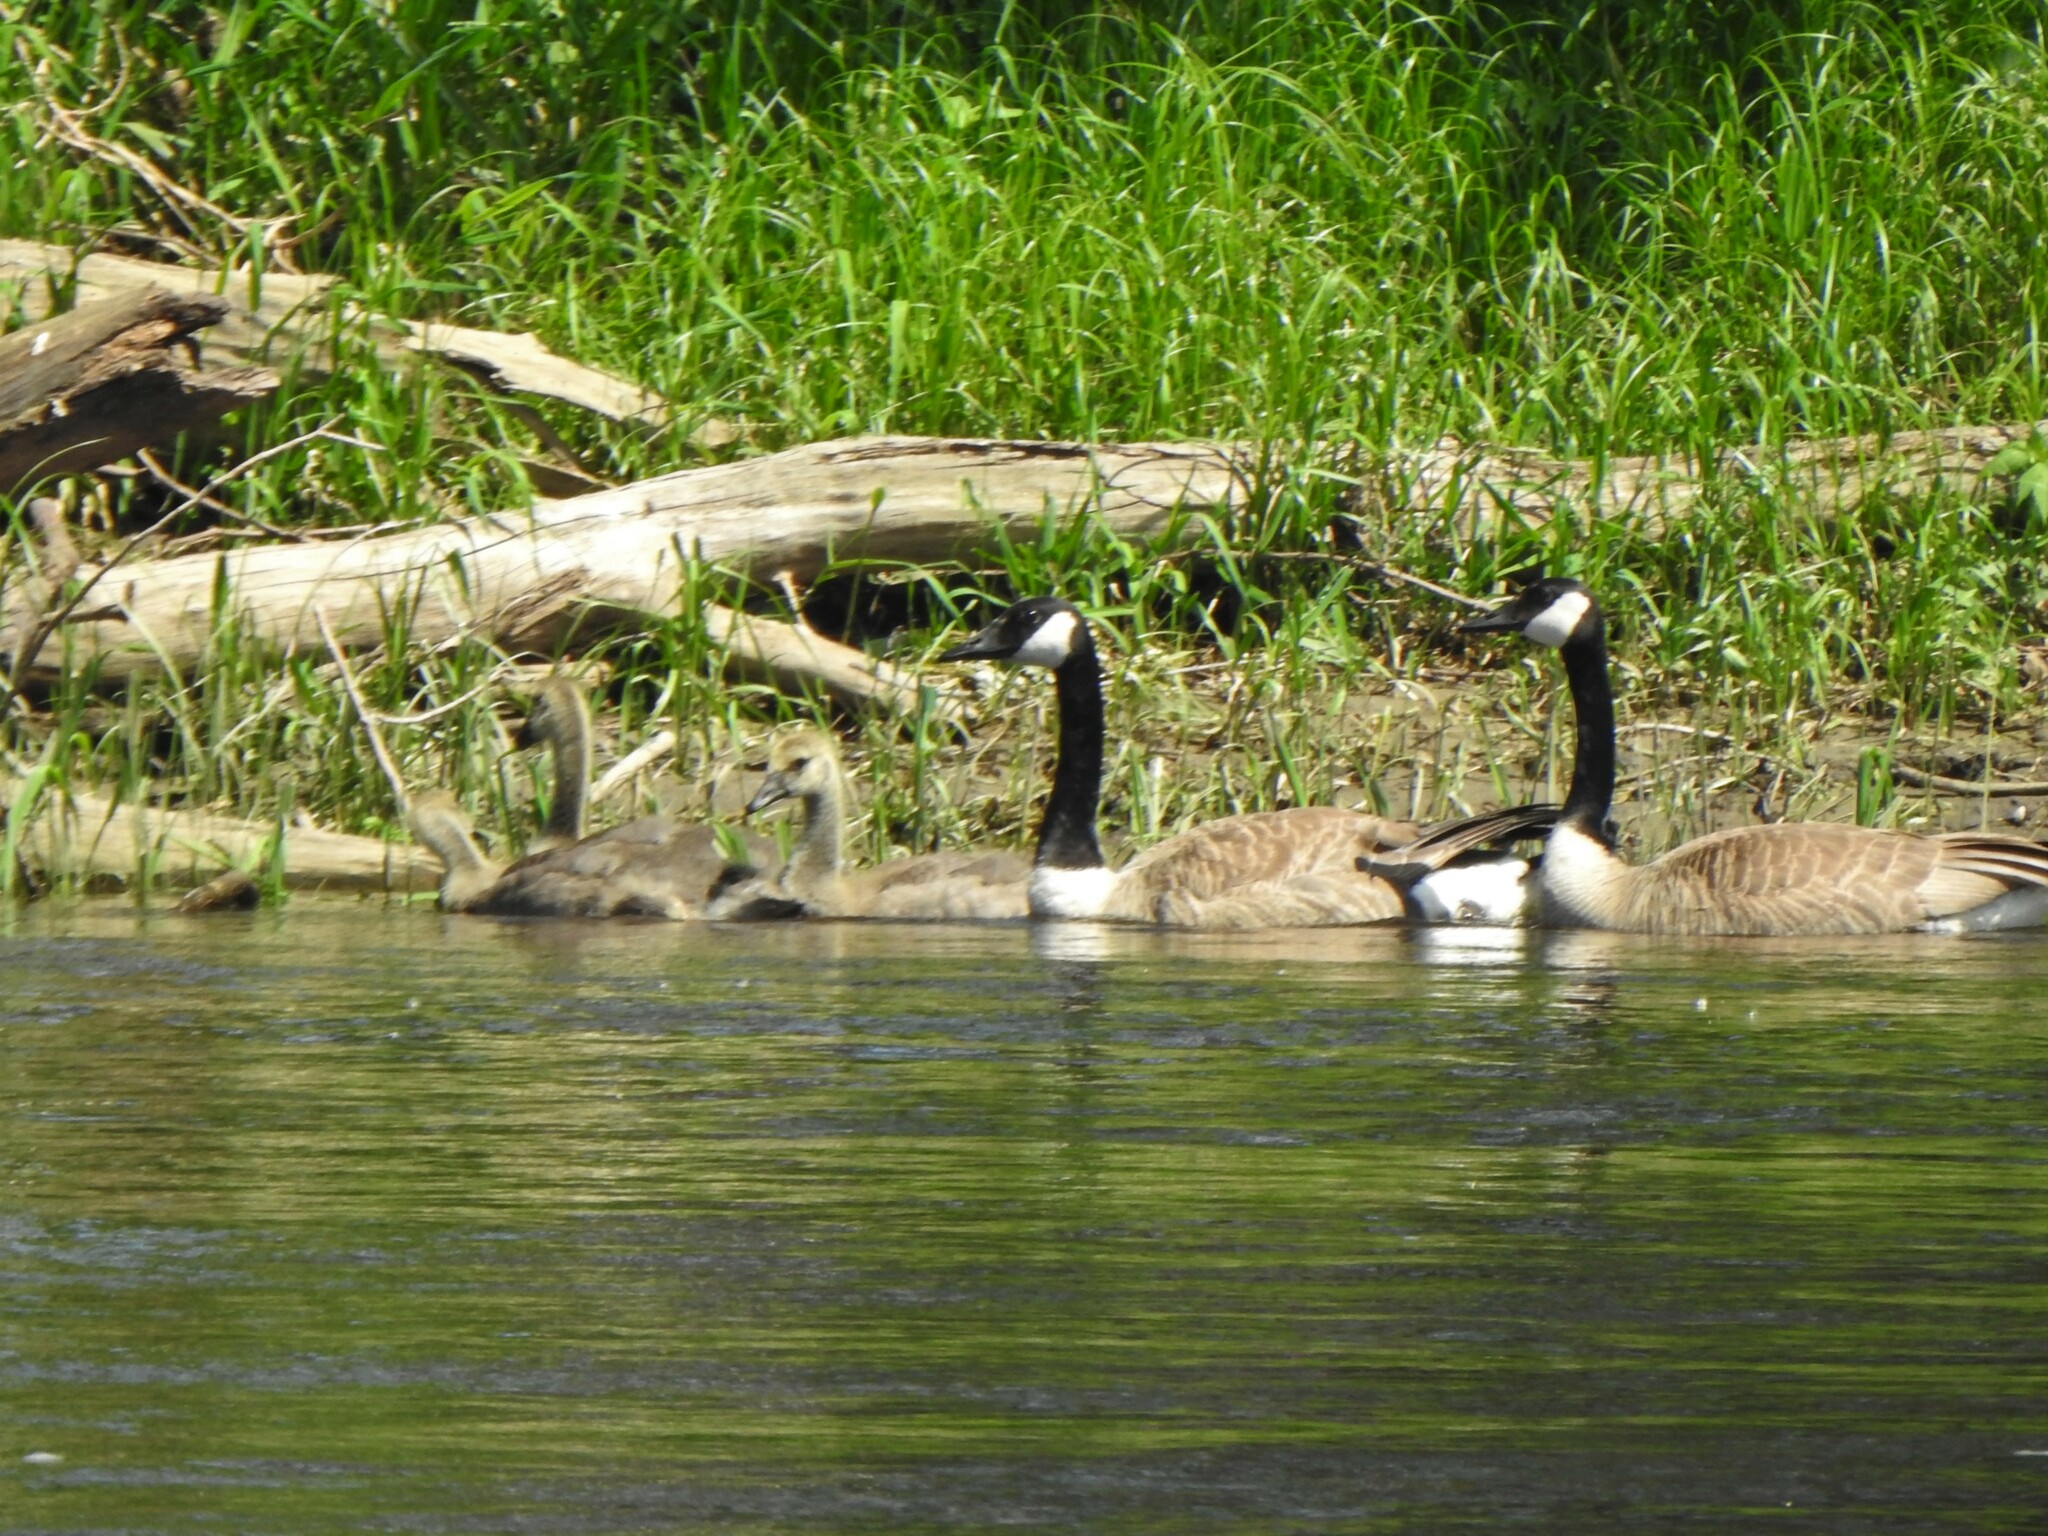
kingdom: Animalia
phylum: Chordata
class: Aves
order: Anseriformes
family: Anatidae
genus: Branta
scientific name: Branta canadensis
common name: Canada goose
